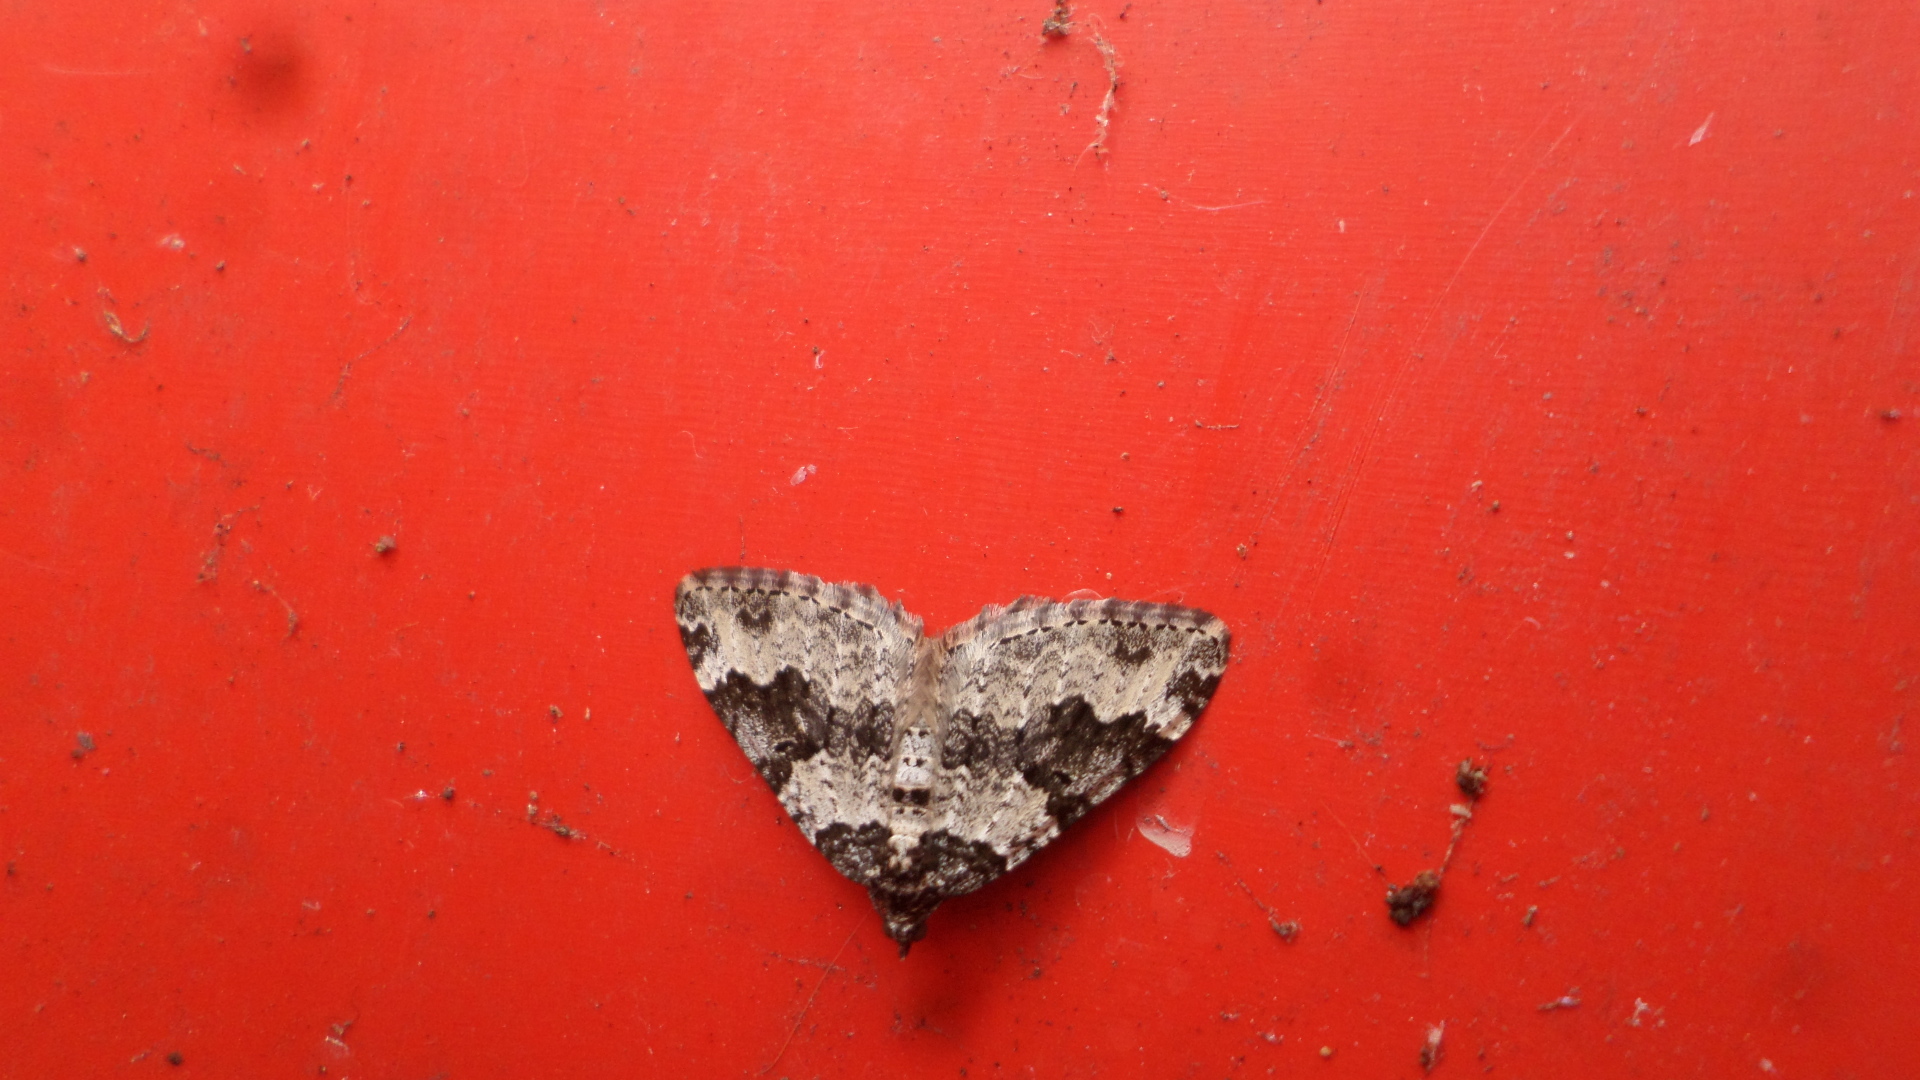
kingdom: Animalia
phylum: Arthropoda
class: Insecta
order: Lepidoptera
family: Geometridae
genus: Xanthorhoe
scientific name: Xanthorhoe fluctuata
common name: Garden carpet
